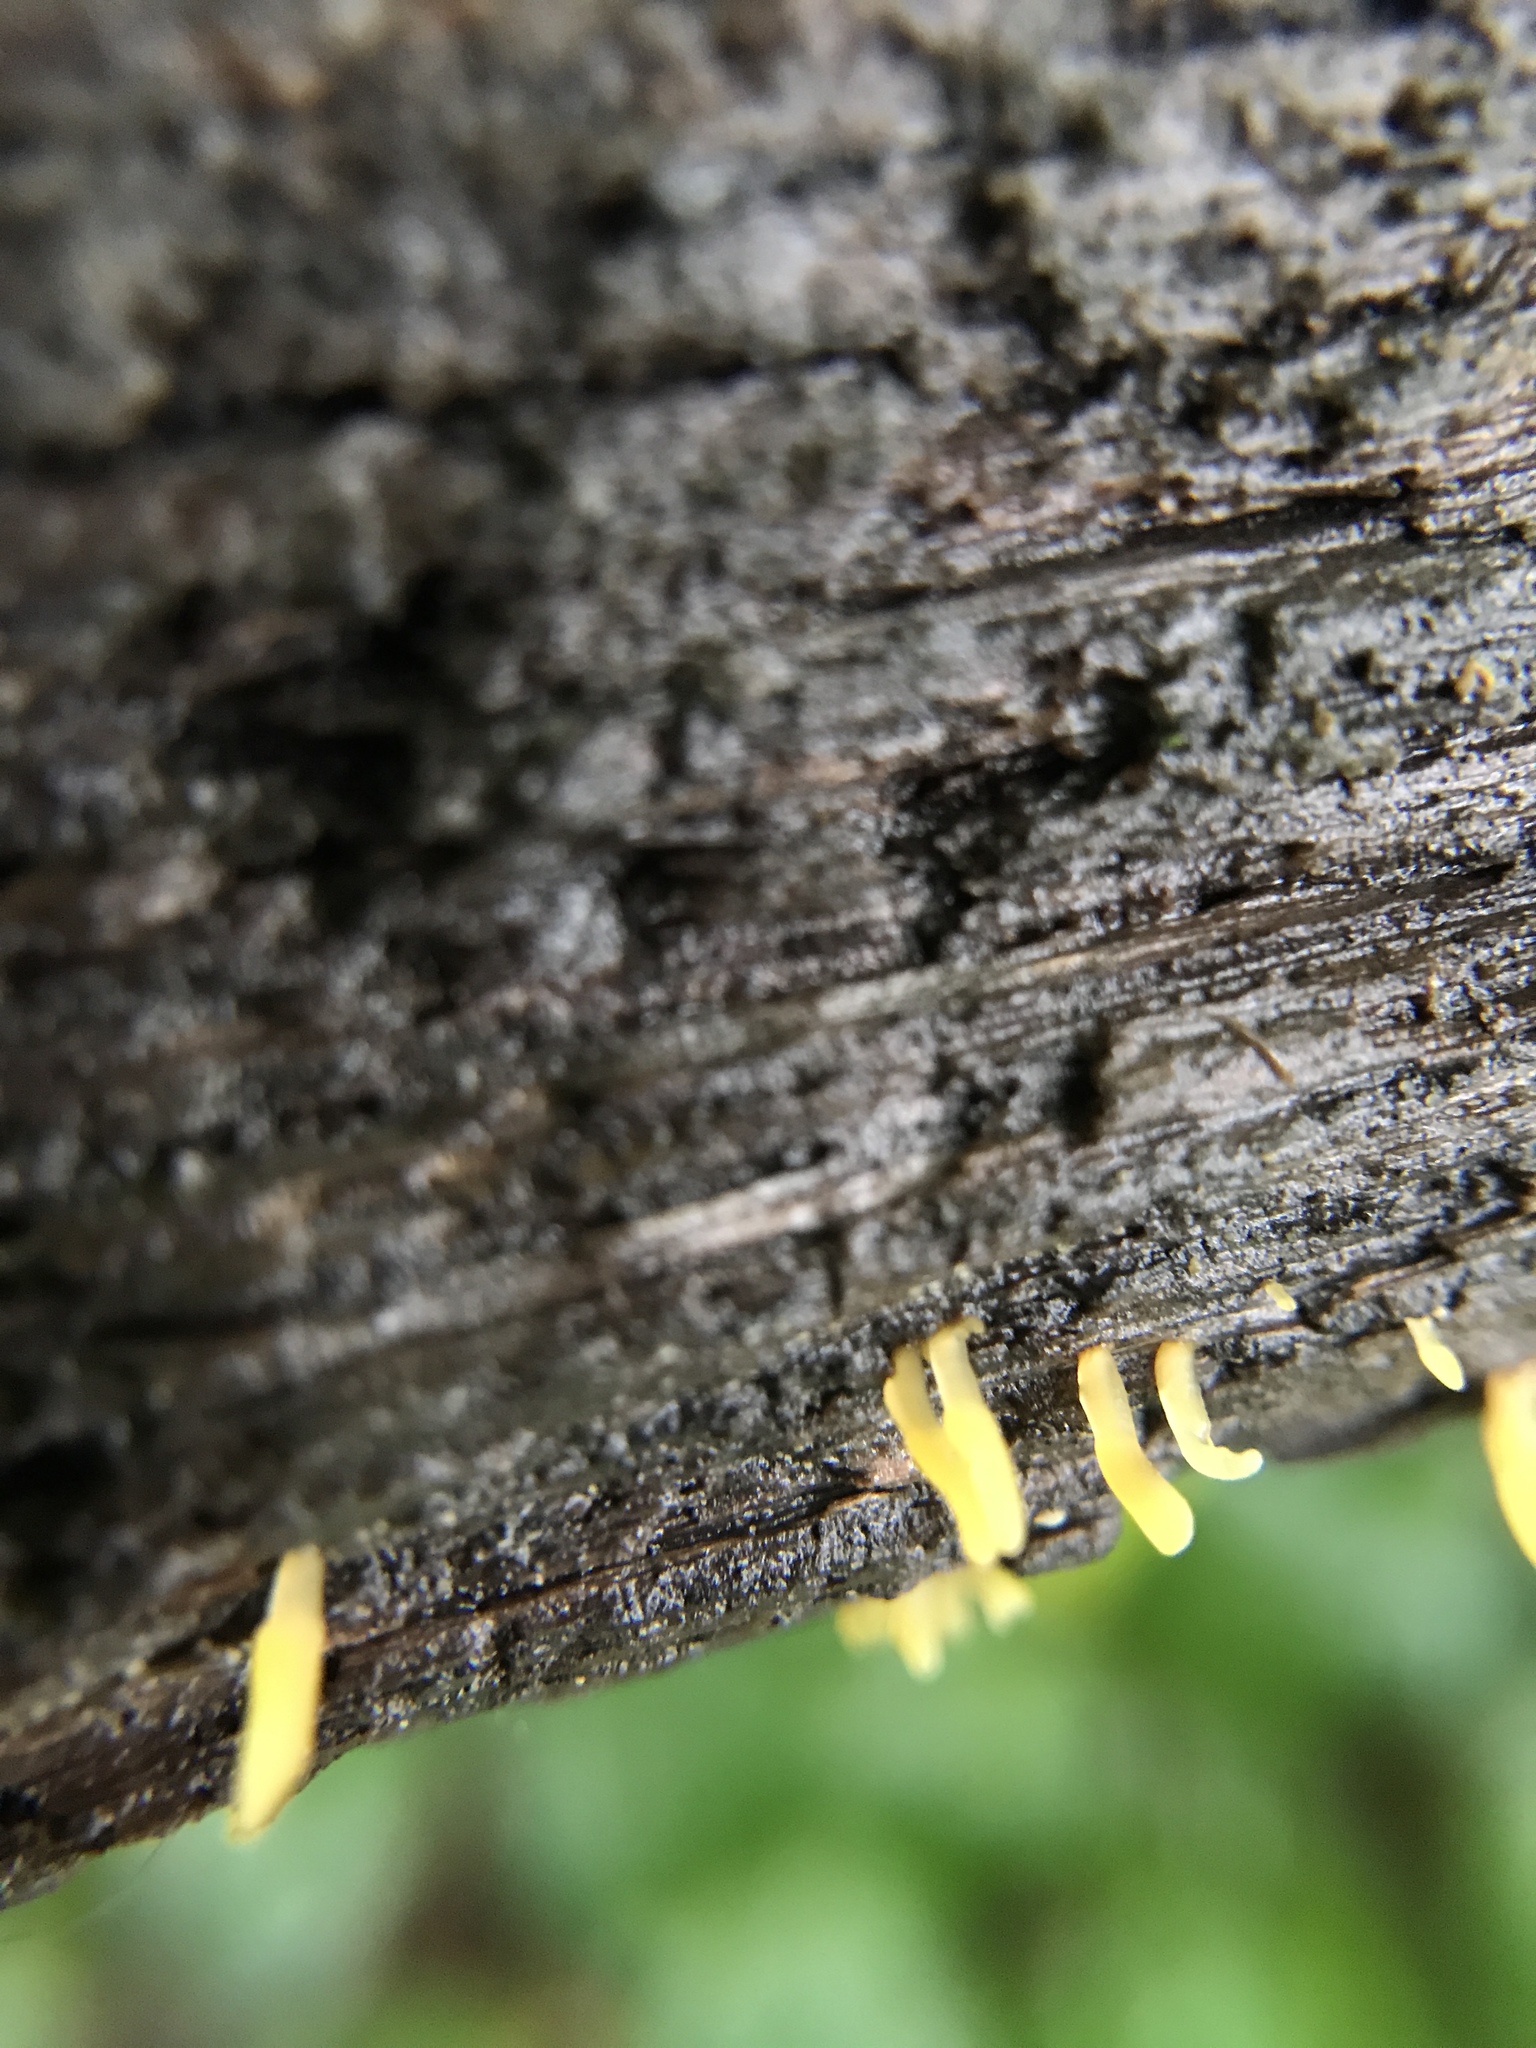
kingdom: Fungi
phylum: Basidiomycota
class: Dacrymycetes
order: Dacrymycetales
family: Dacrymycetaceae
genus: Calocera
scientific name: Calocera cornea
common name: Small stagshorn
